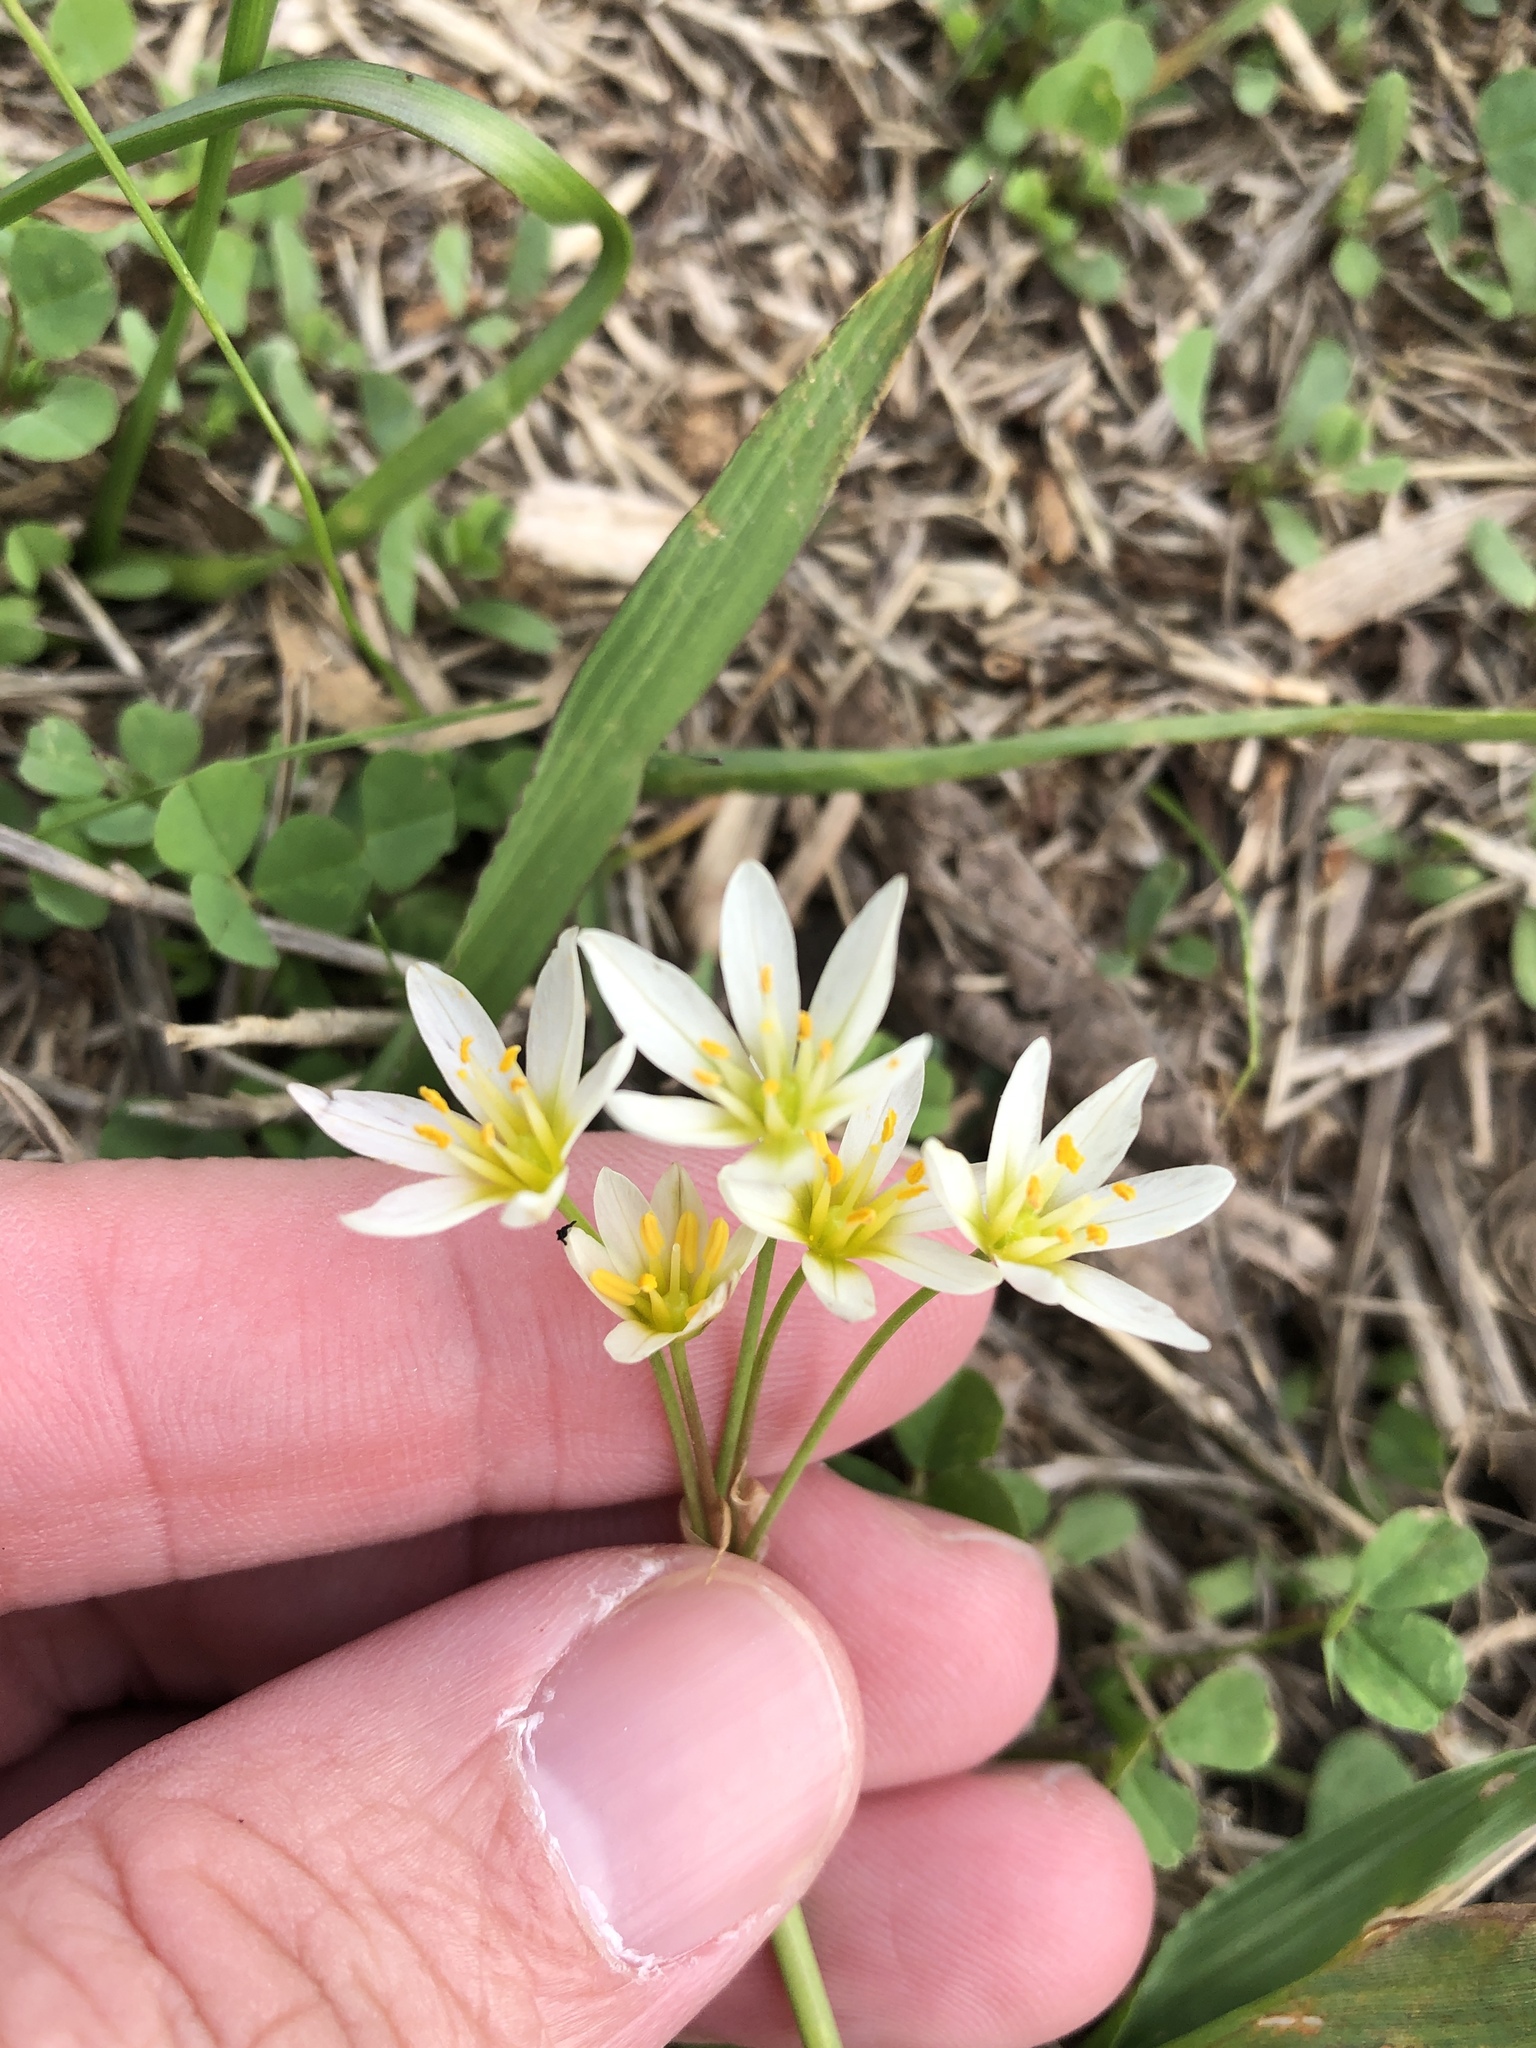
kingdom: Plantae
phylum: Tracheophyta
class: Liliopsida
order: Asparagales
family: Amaryllidaceae
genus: Nothoscordum
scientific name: Nothoscordum bivalve
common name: Crow-poison
